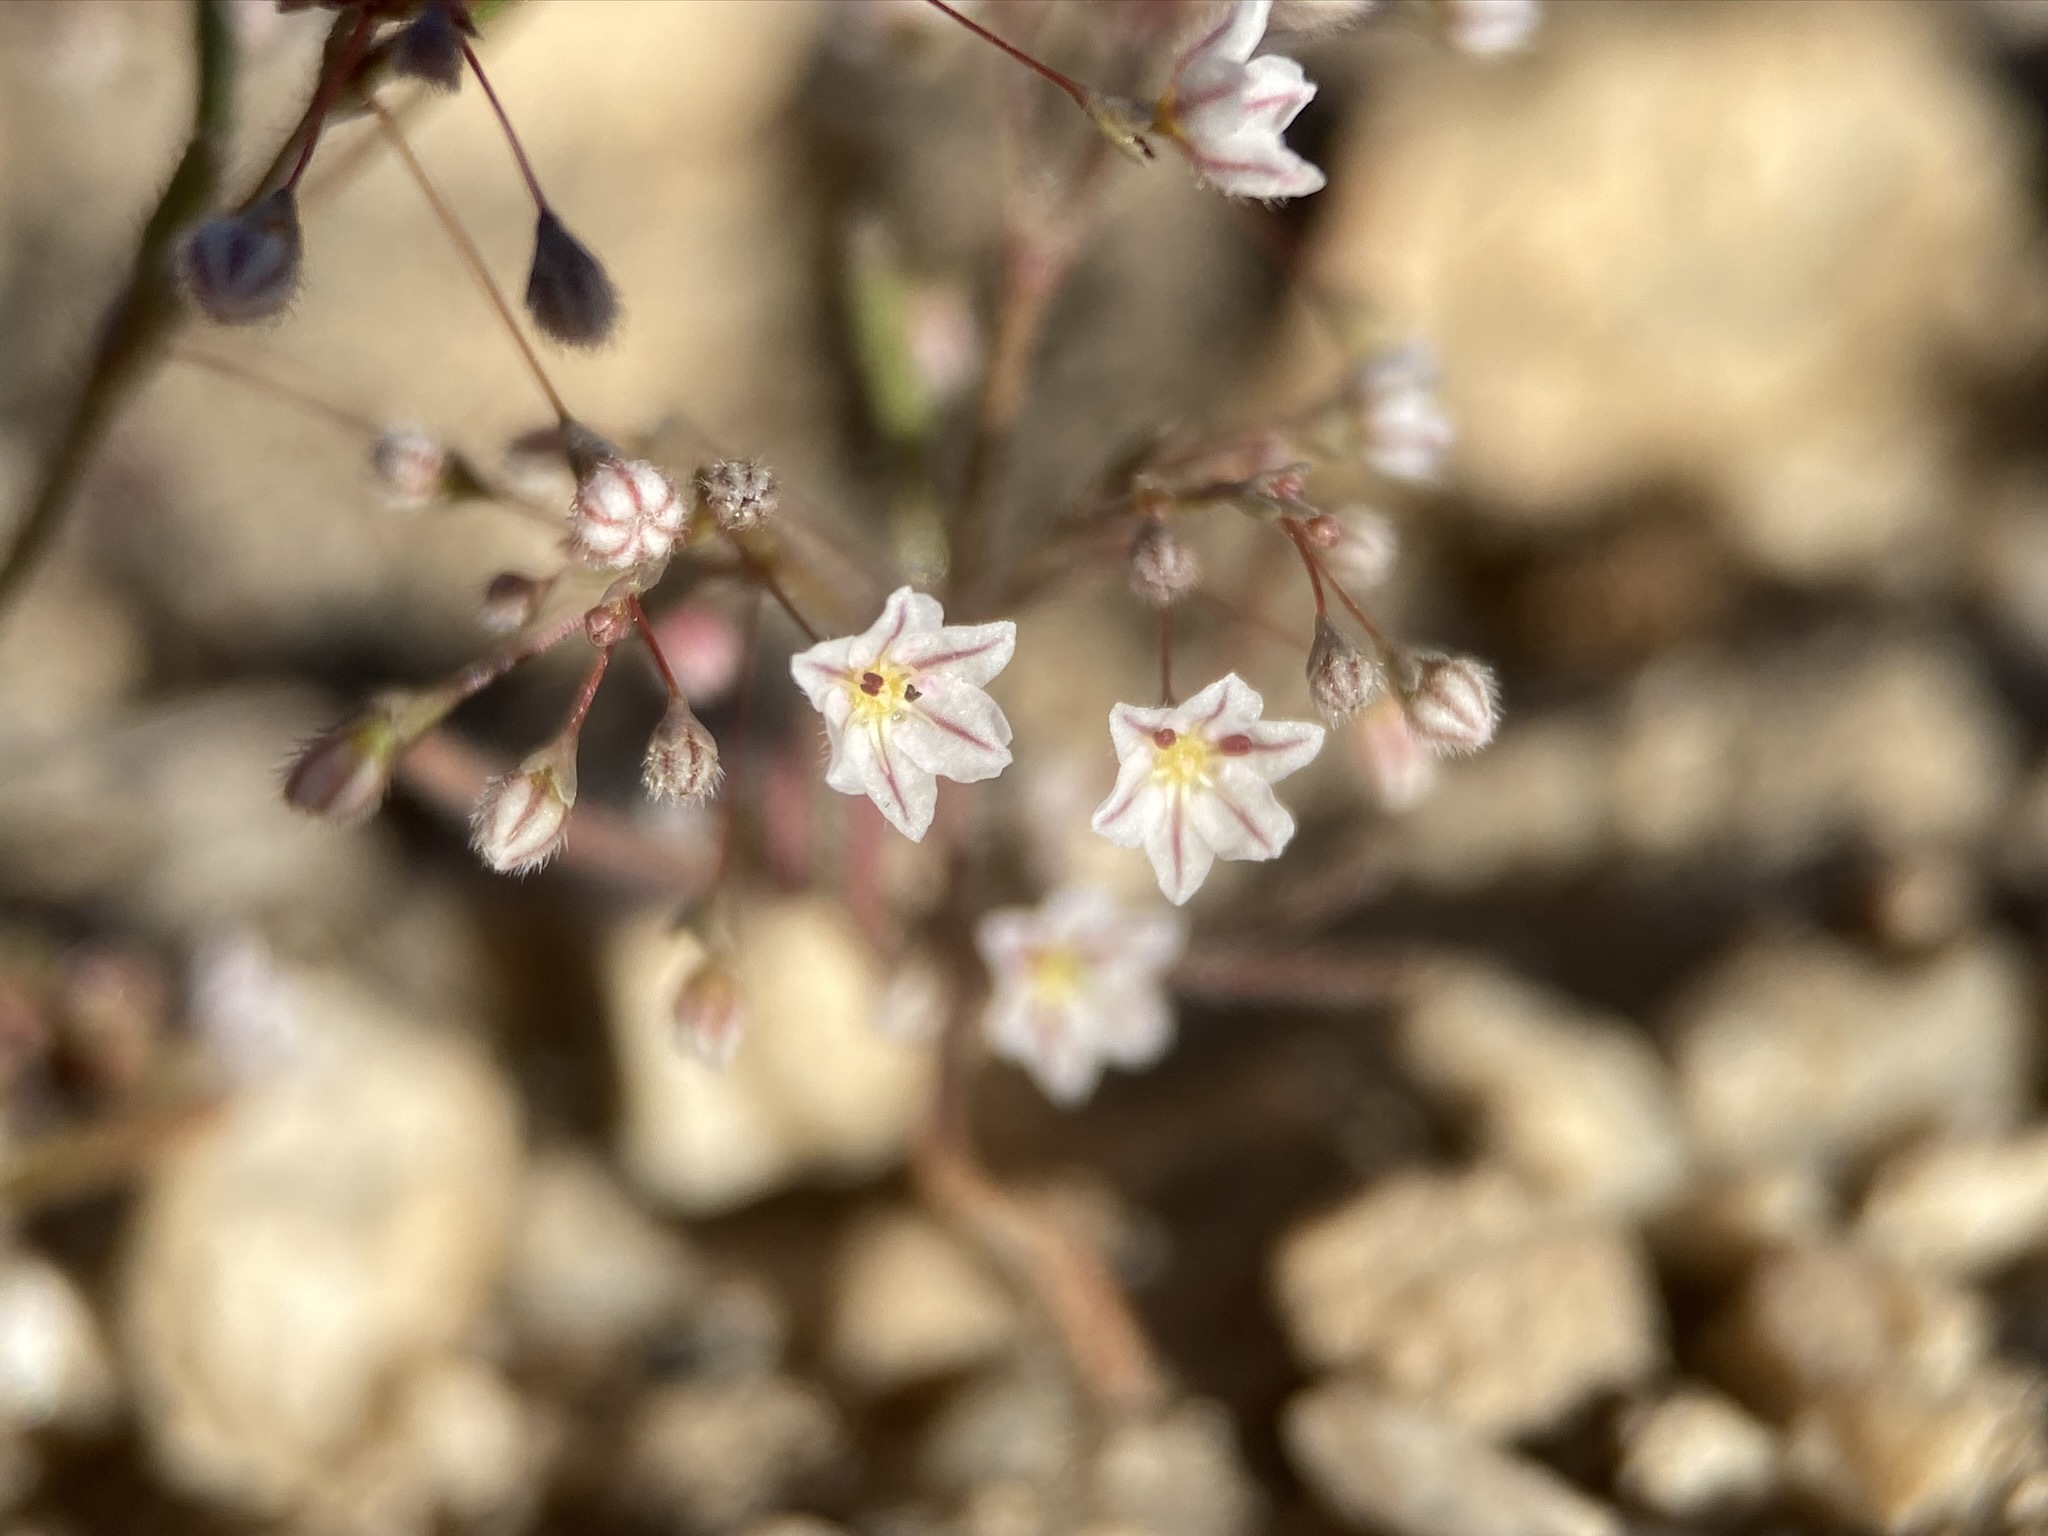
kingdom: Plantae
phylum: Tracheophyta
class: Magnoliopsida
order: Caryophyllales
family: Polygonaceae
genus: Eriogonum
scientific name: Eriogonum spergulinum
